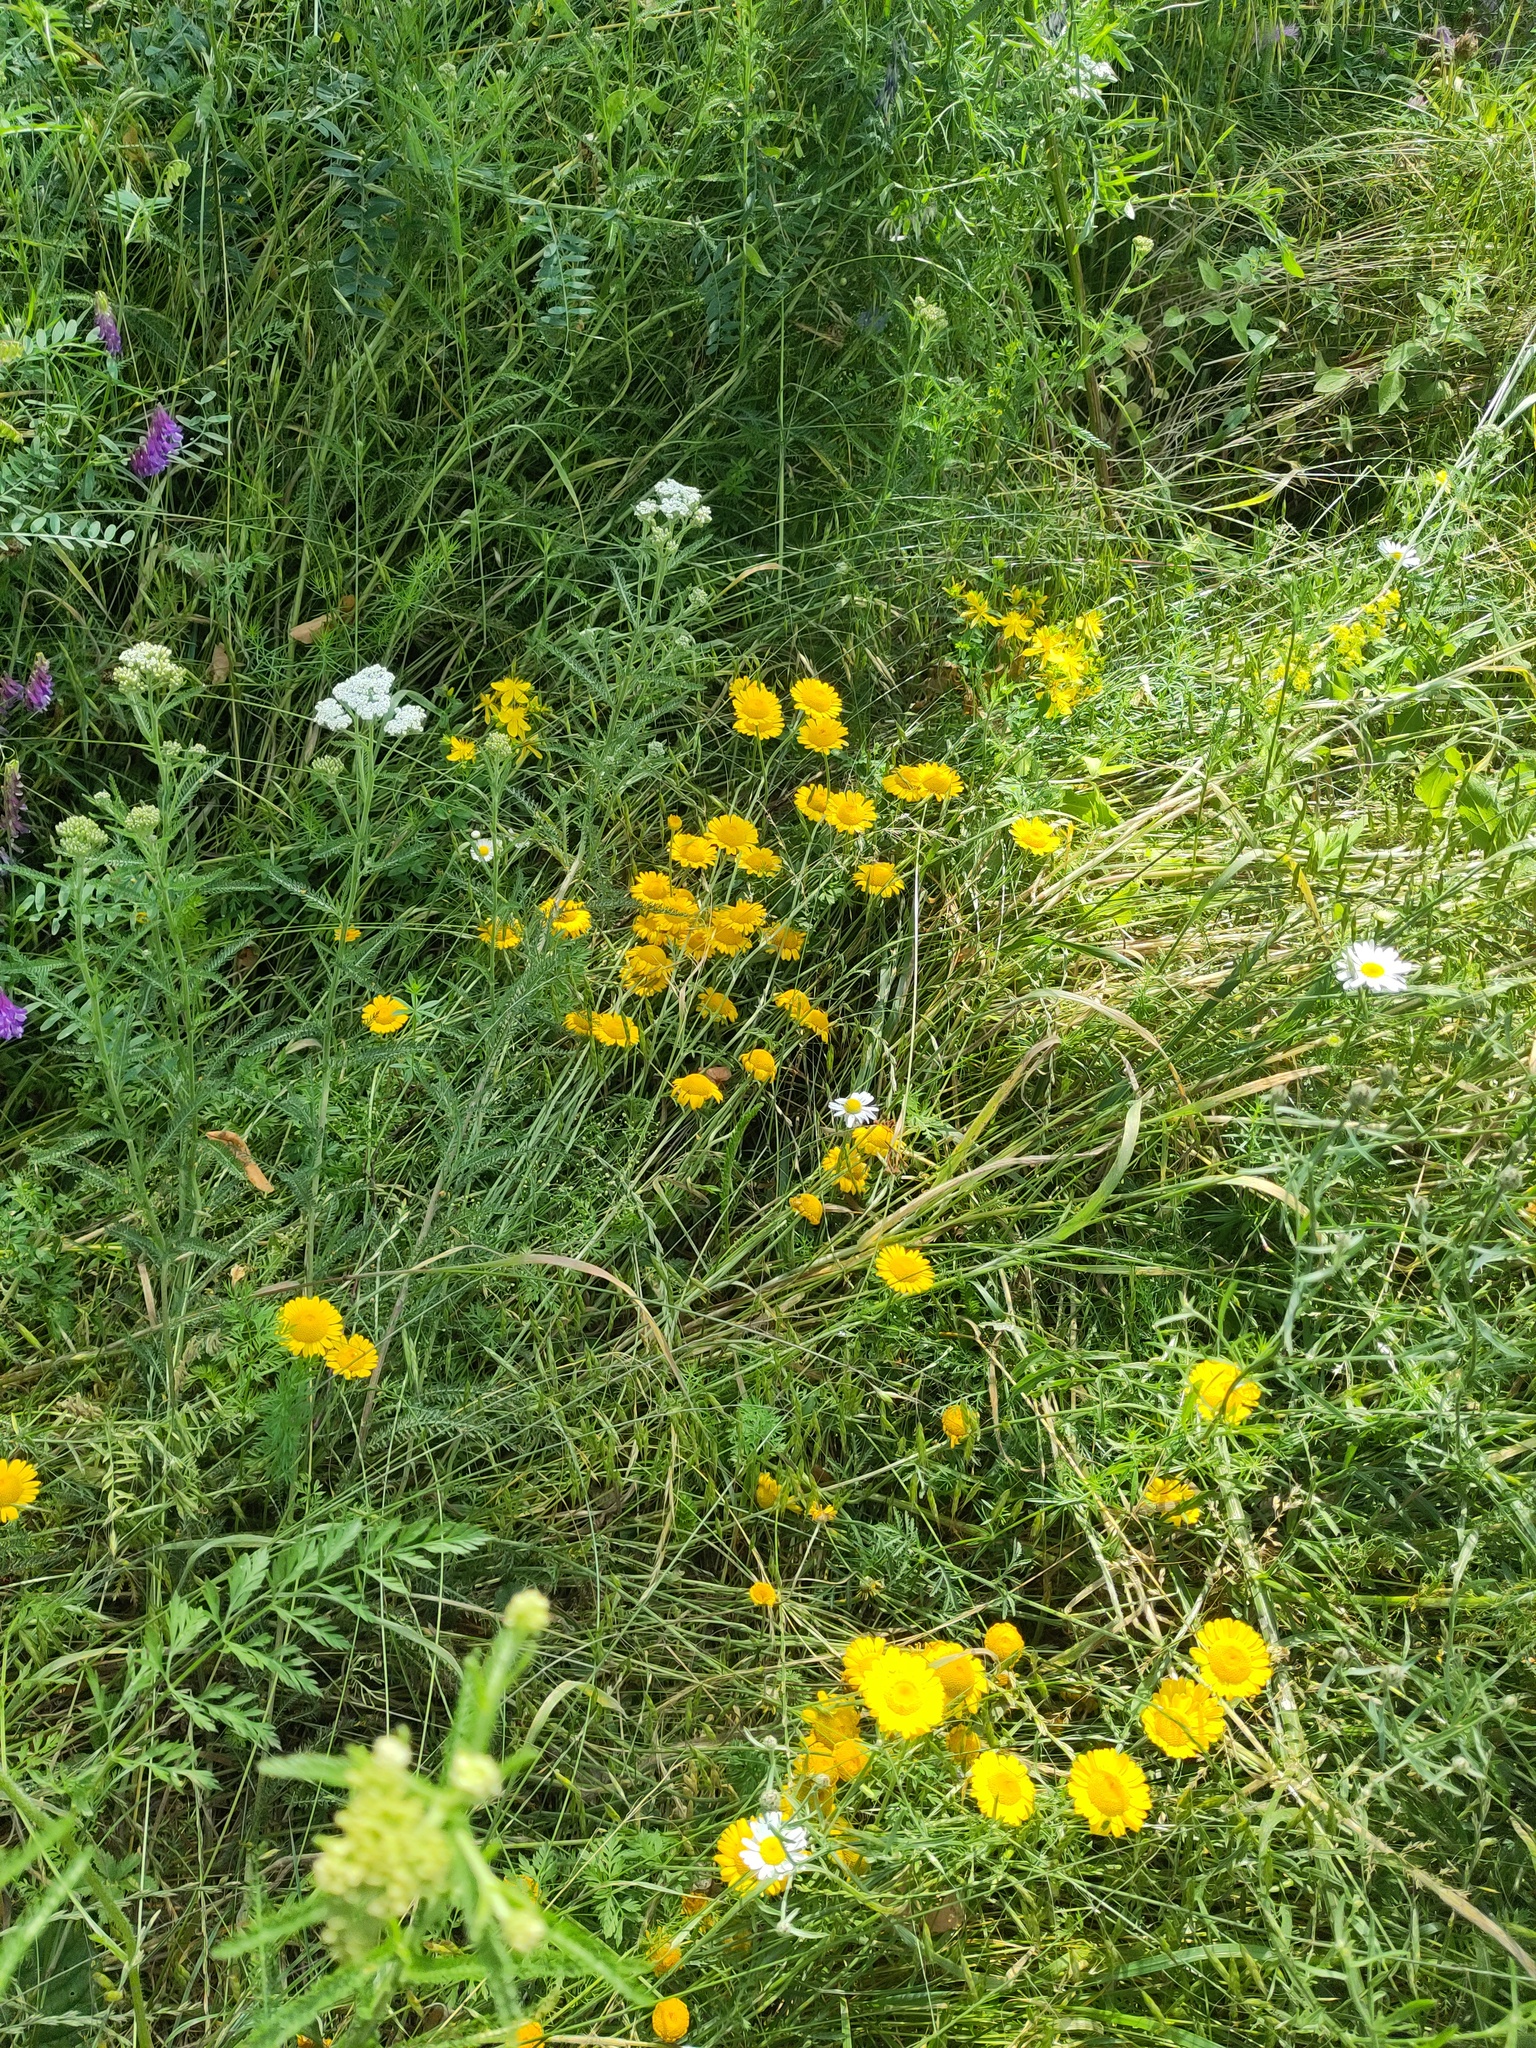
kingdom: Plantae
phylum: Tracheophyta
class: Magnoliopsida
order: Asterales
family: Asteraceae
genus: Cota
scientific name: Cota tinctoria
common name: Golden chamomile
